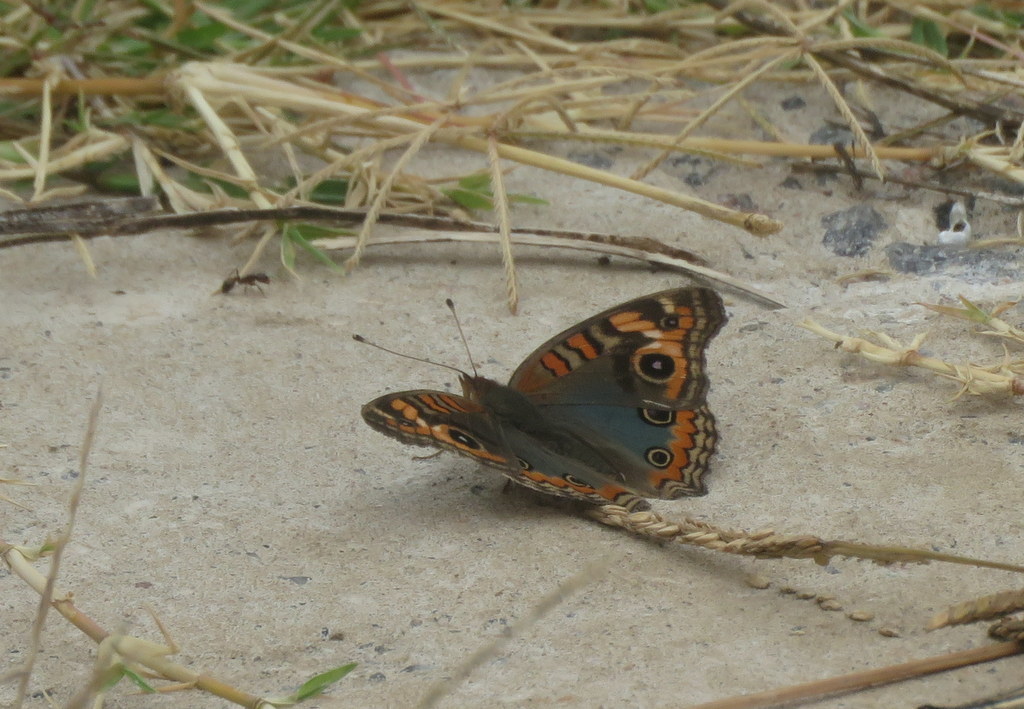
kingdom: Animalia
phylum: Arthropoda
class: Insecta
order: Lepidoptera
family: Nymphalidae
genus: Junonia
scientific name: Junonia lavinia
